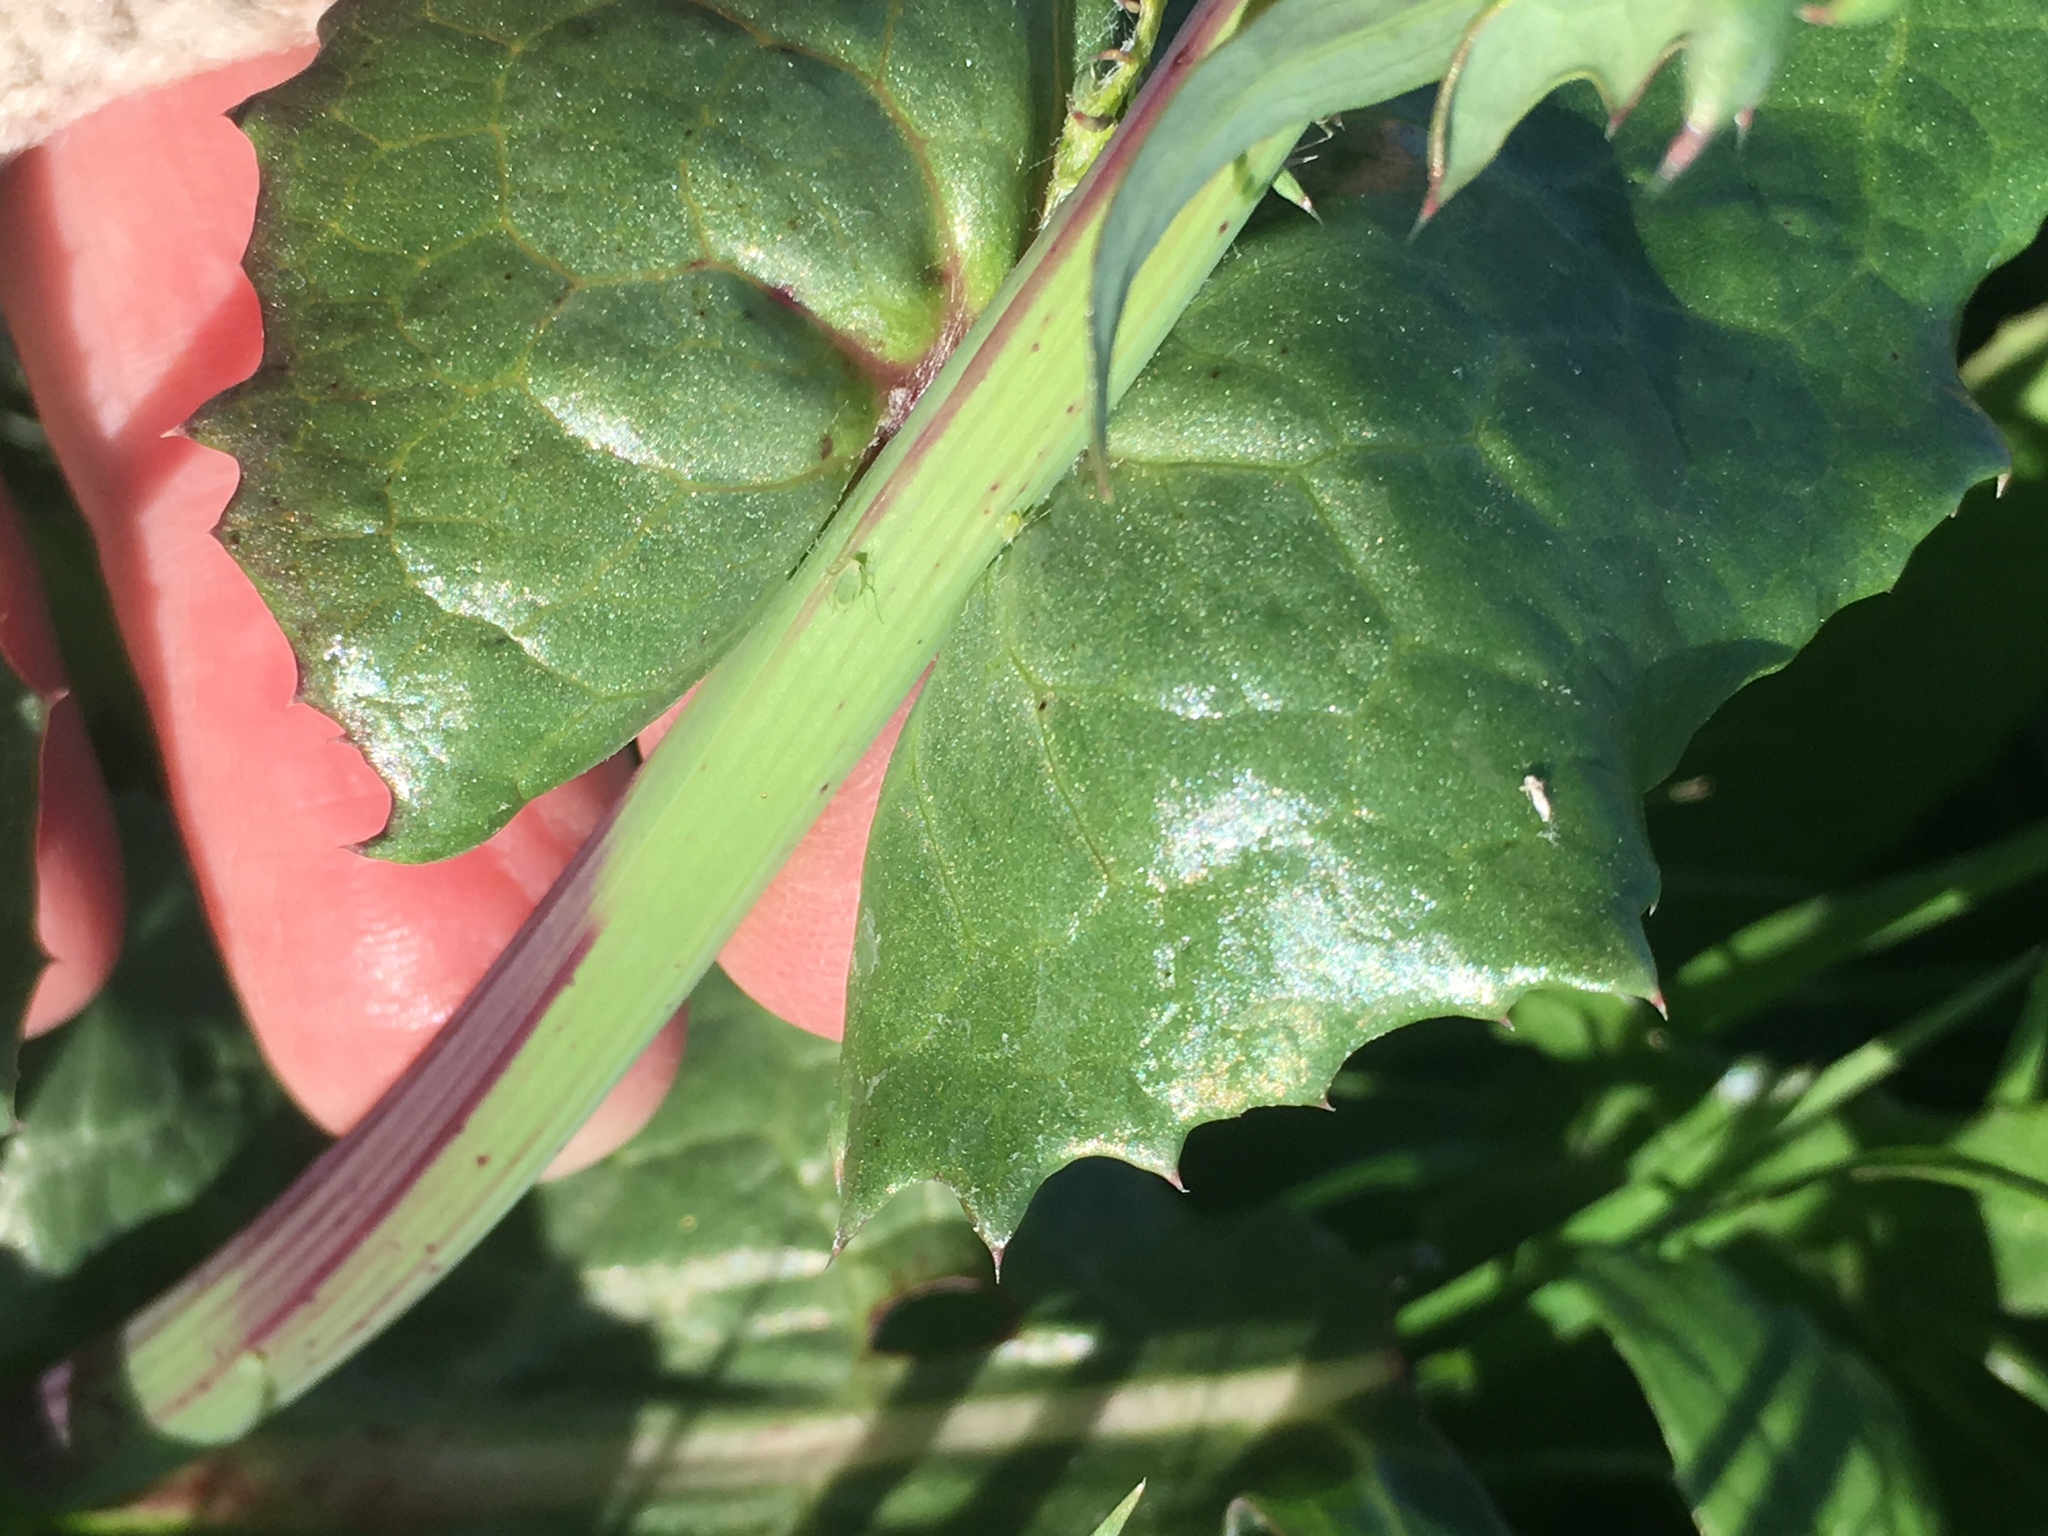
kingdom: Plantae
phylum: Tracheophyta
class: Magnoliopsida
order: Asterales
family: Asteraceae
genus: Sonchus
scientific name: Sonchus oleraceus
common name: Common sowthistle
